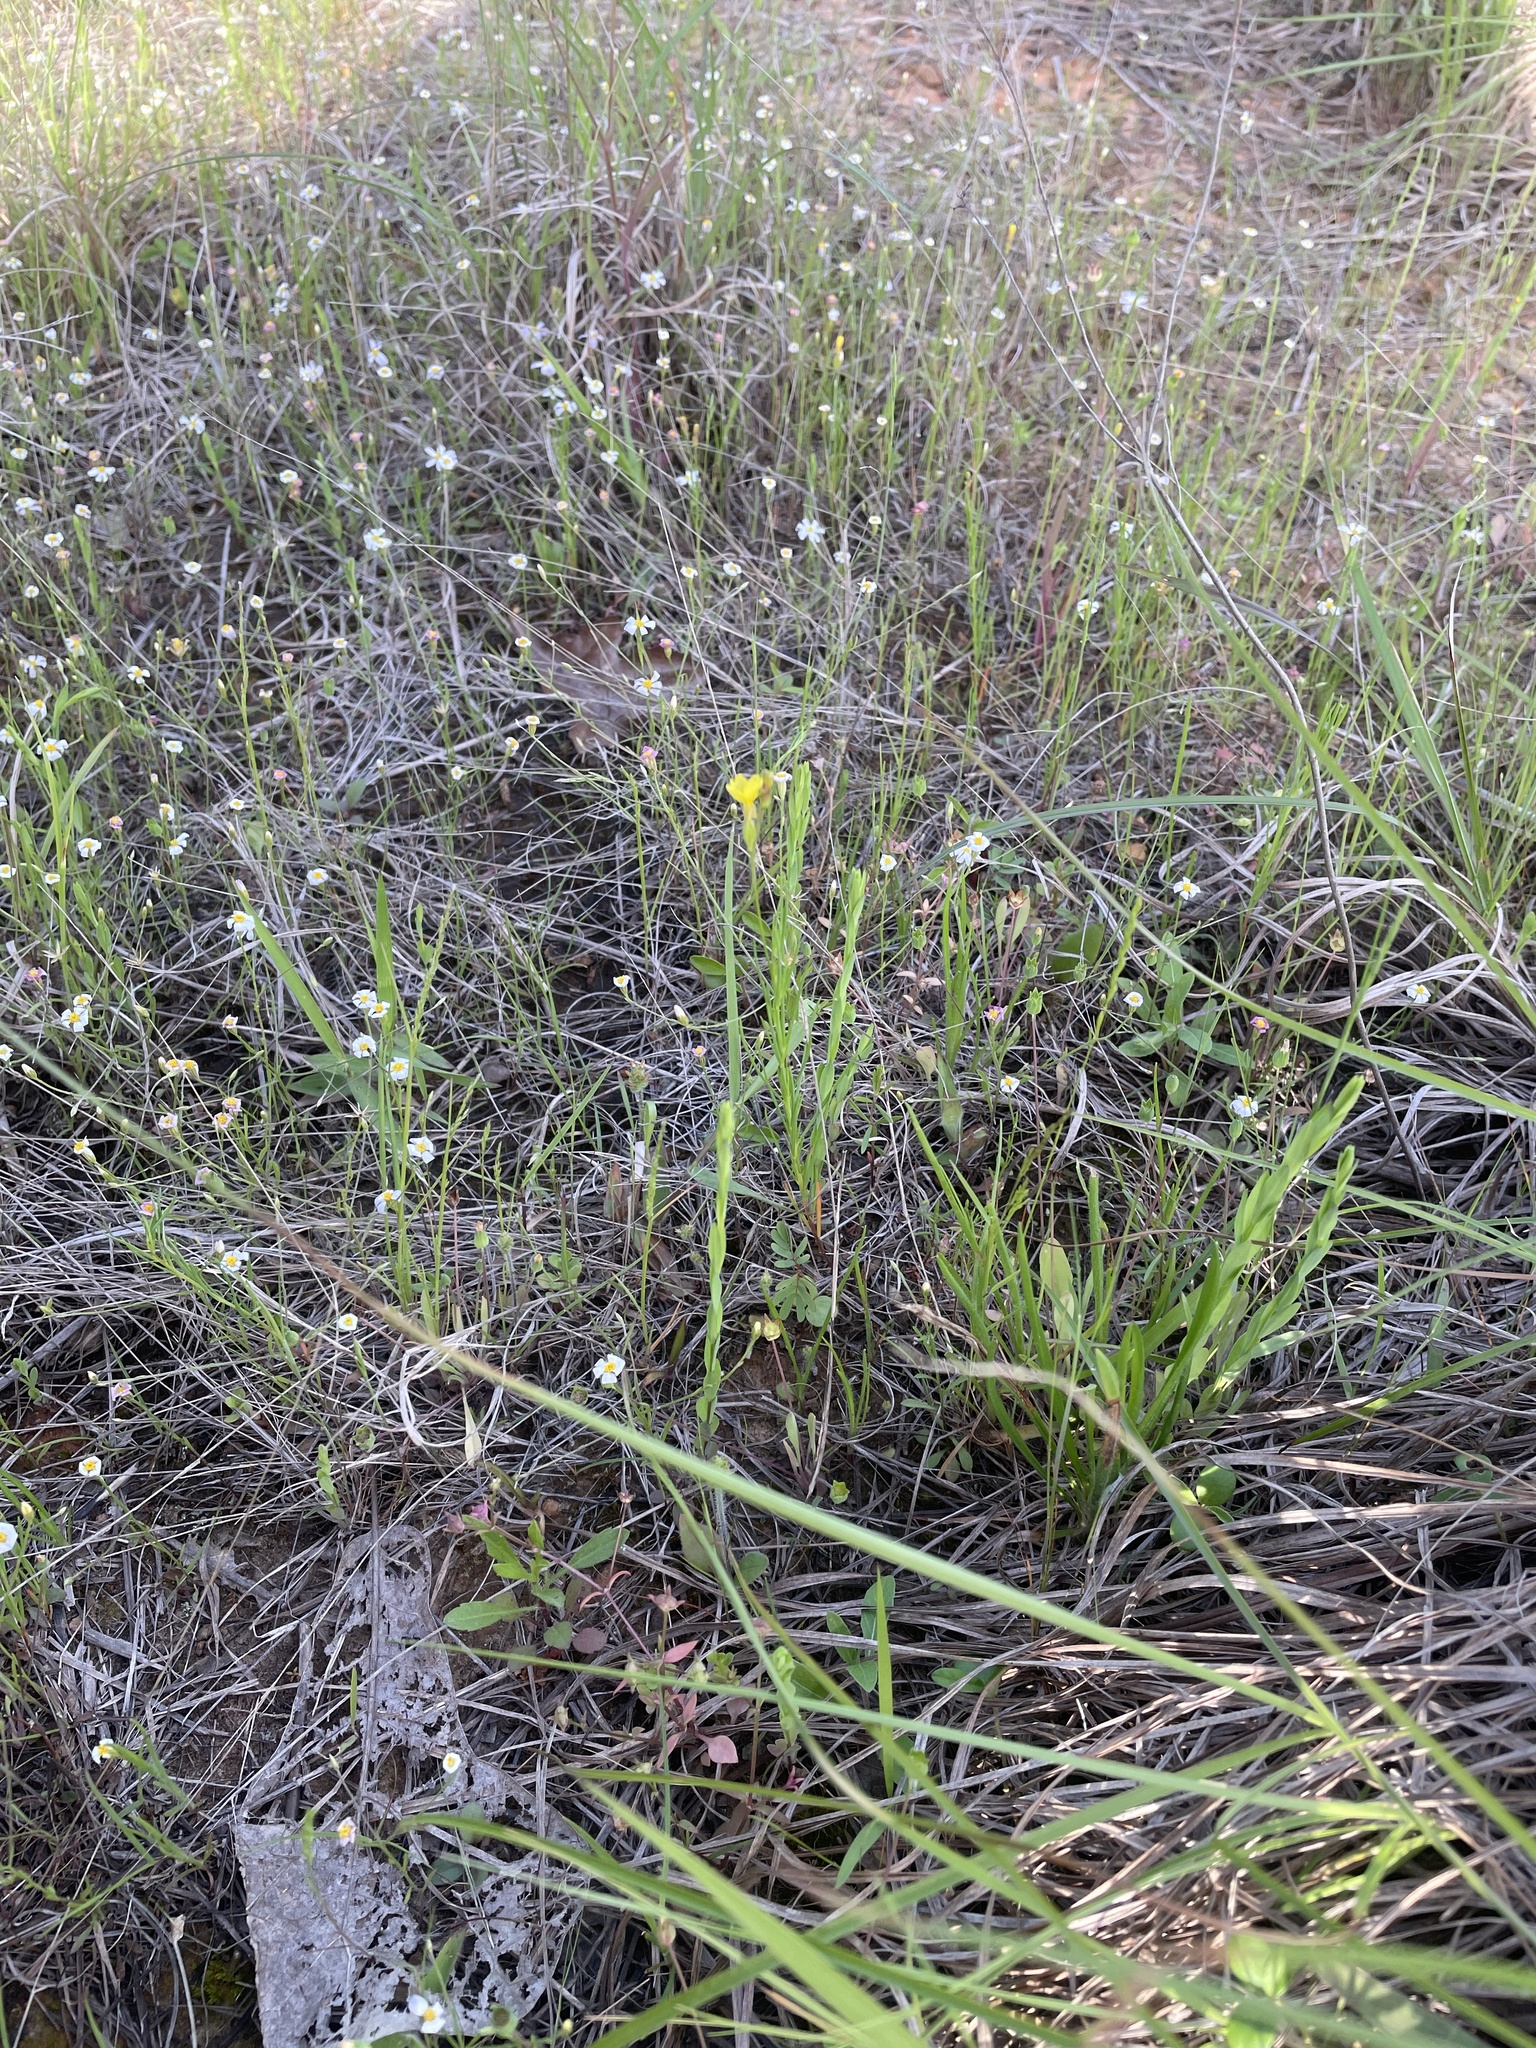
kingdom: Plantae
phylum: Tracheophyta
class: Magnoliopsida
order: Myrtales
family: Onagraceae
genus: Oenothera
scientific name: Oenothera linifolia
